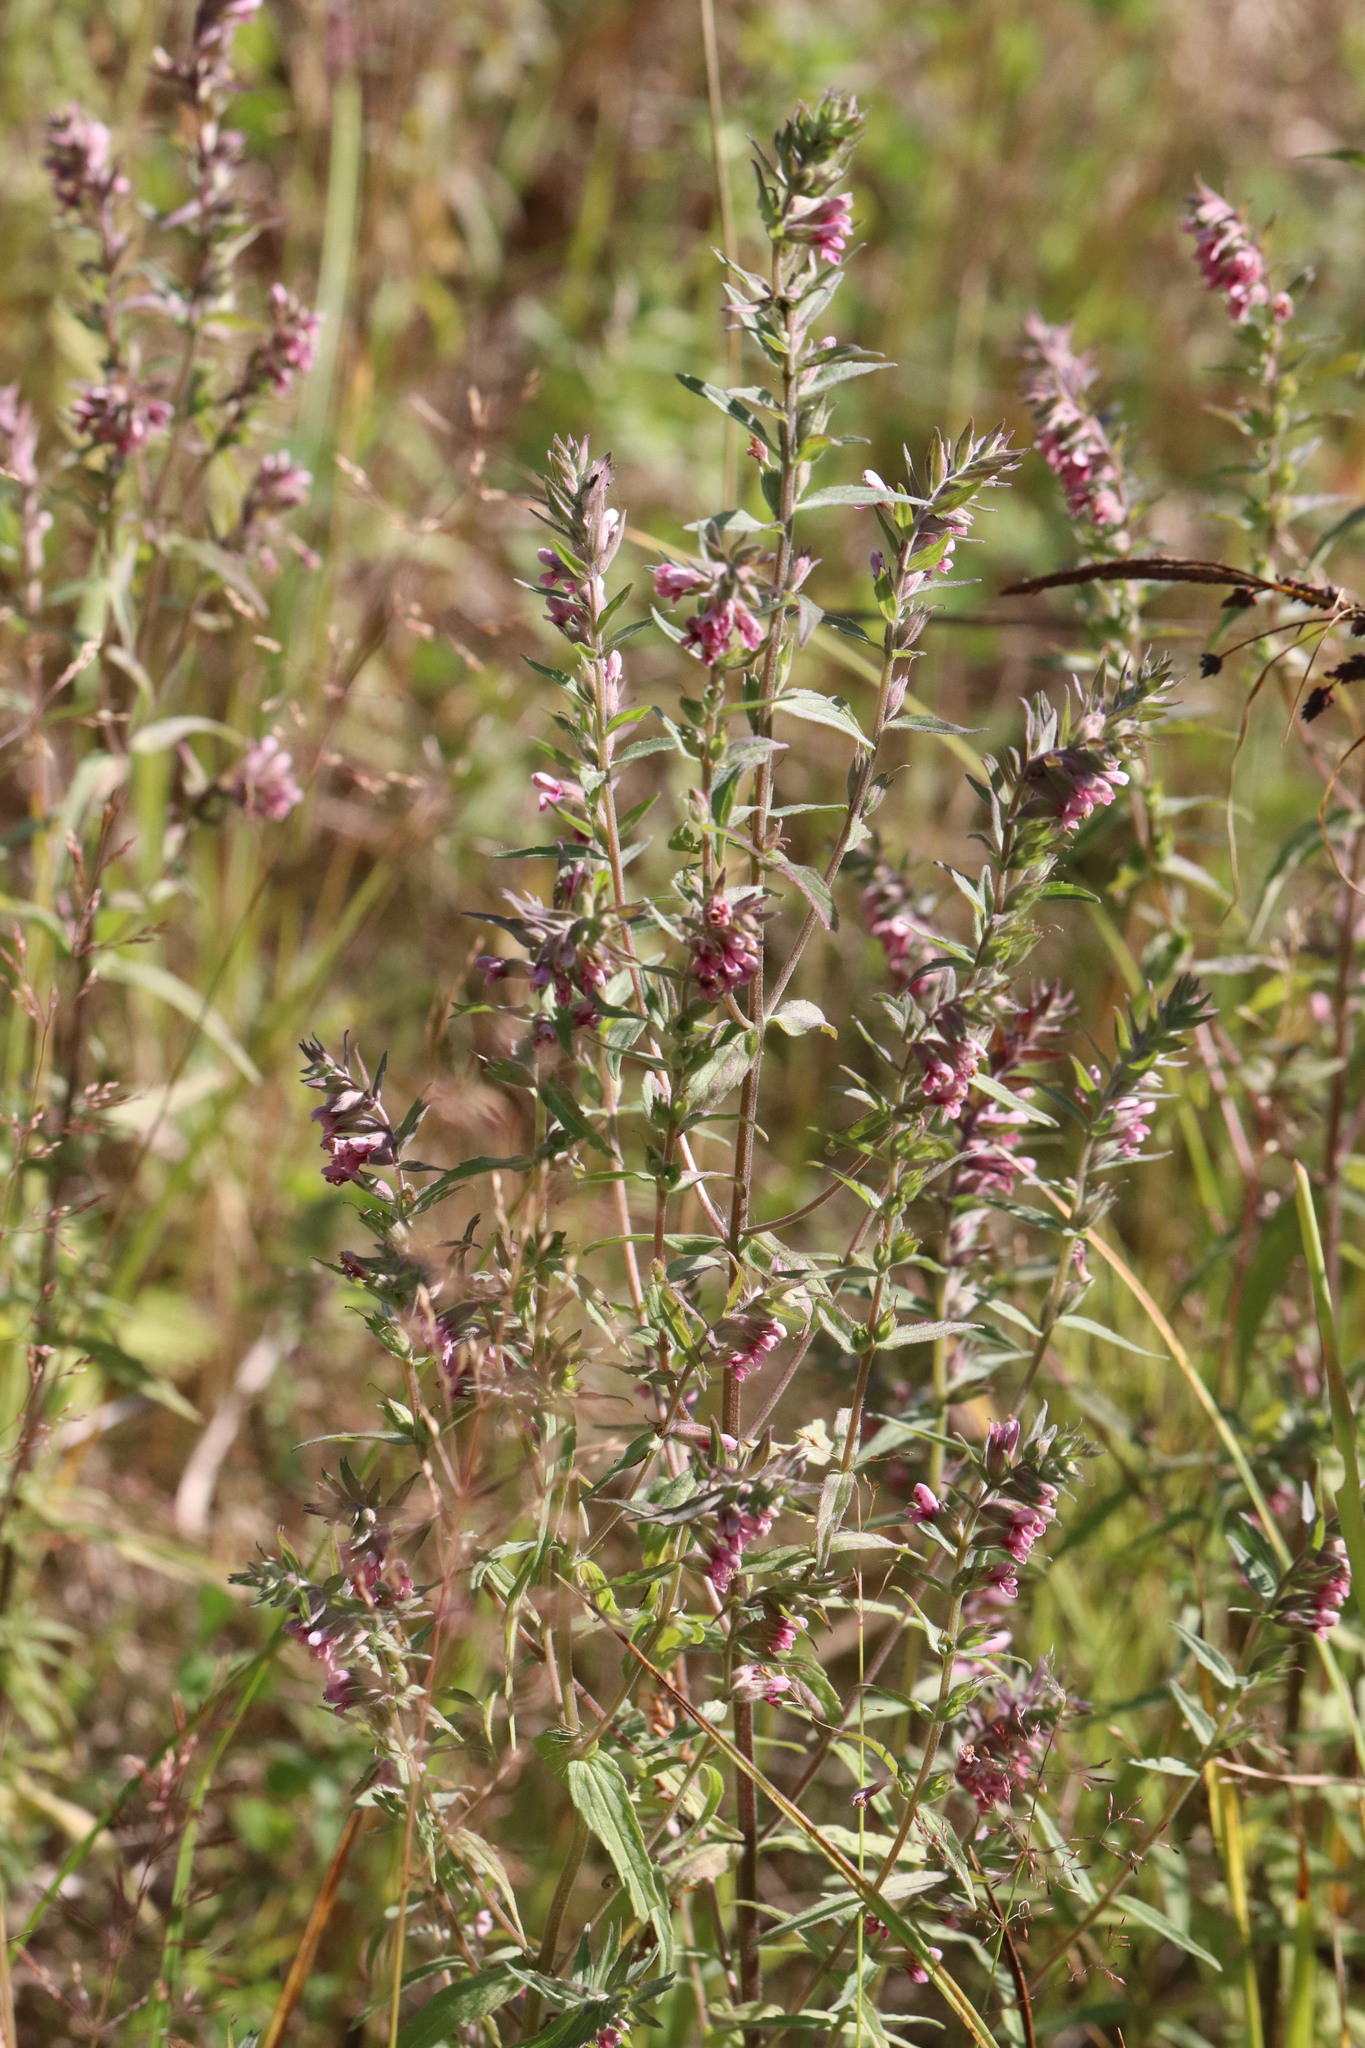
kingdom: Plantae
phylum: Tracheophyta
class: Magnoliopsida
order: Lamiales
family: Orobanchaceae
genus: Odontites
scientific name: Odontites vulgaris
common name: Broomrape
